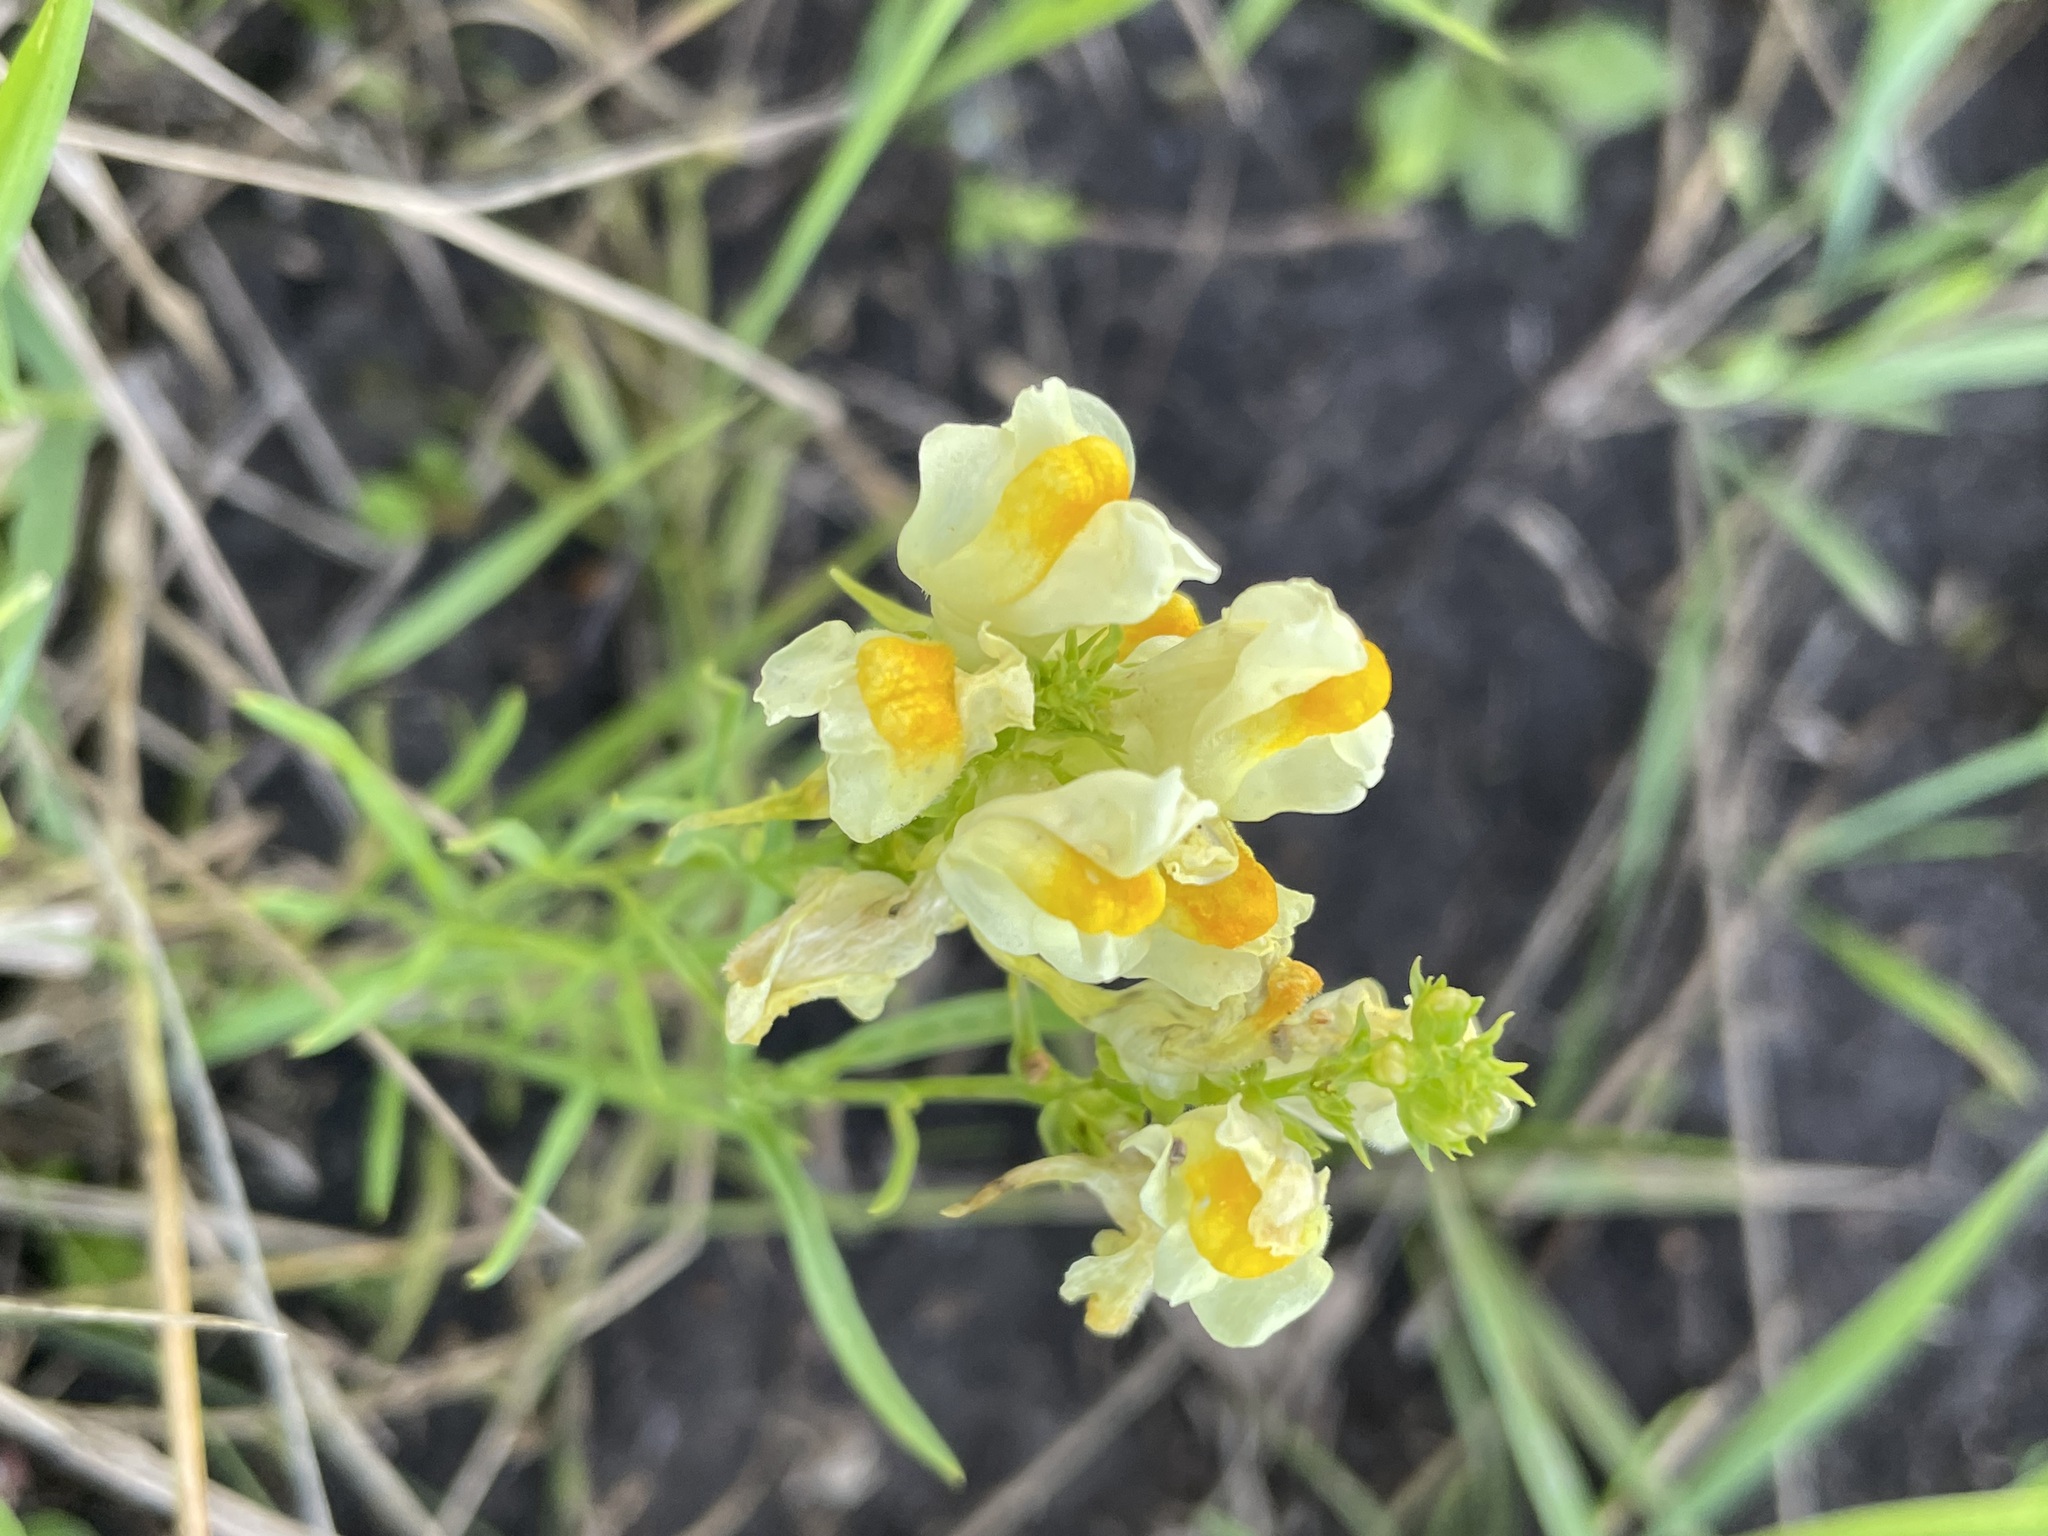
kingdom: Plantae
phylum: Tracheophyta
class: Magnoliopsida
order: Lamiales
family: Plantaginaceae
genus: Linaria
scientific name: Linaria vulgaris
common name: Butter and eggs
